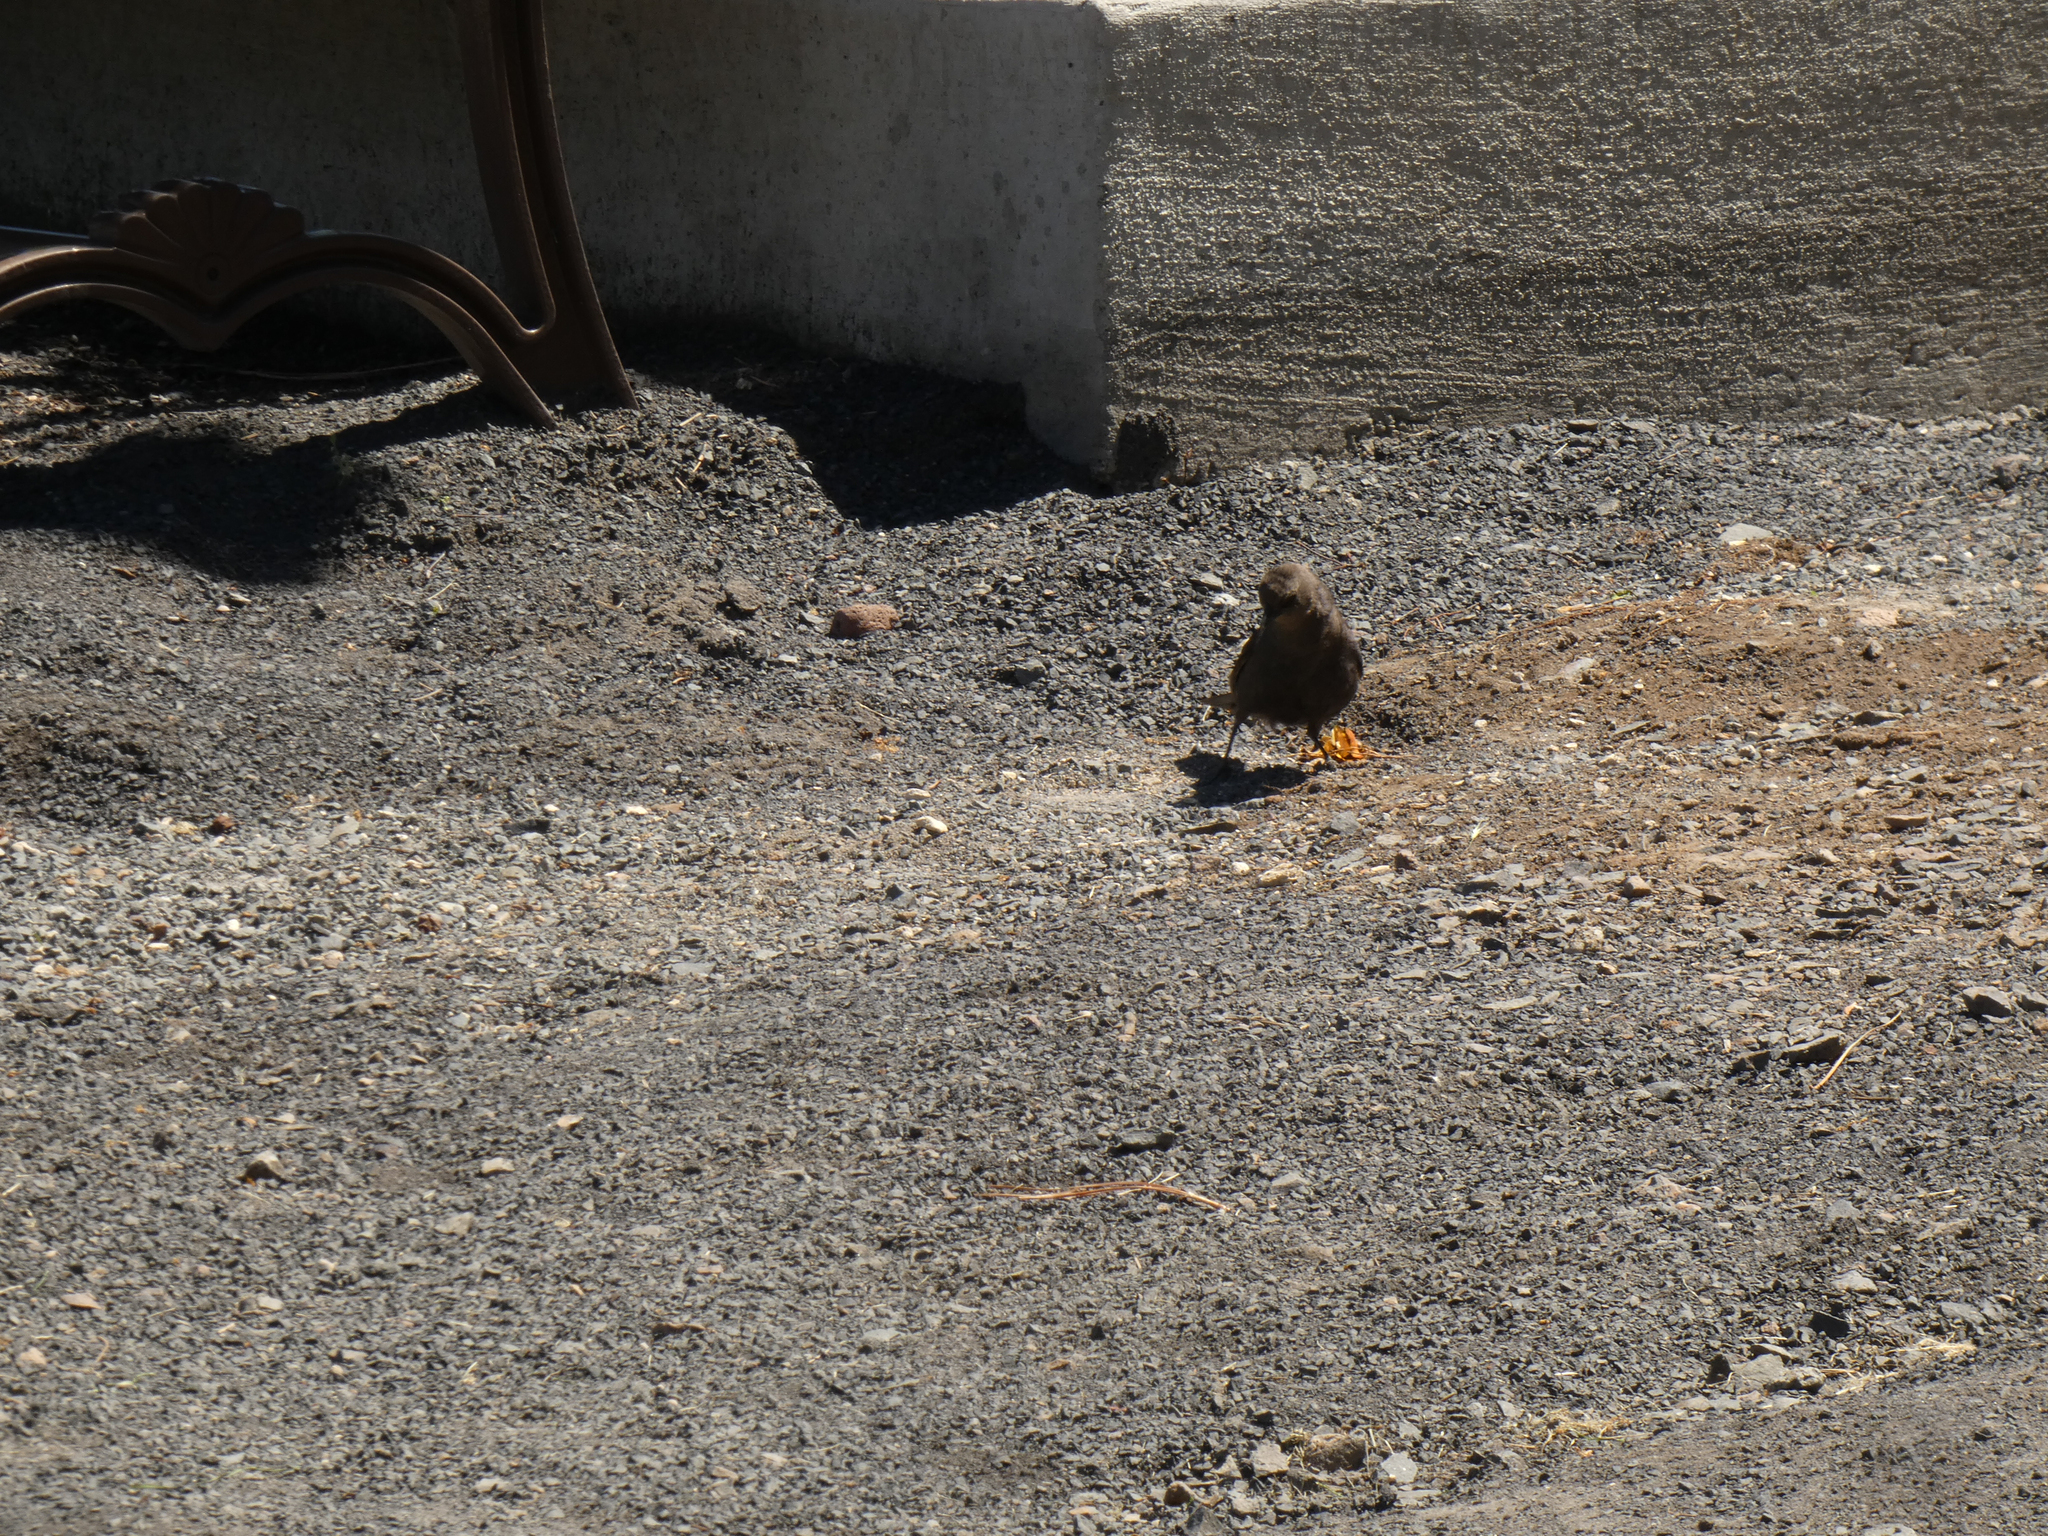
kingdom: Animalia
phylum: Chordata
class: Aves
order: Passeriformes
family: Icteridae
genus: Euphagus
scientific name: Euphagus cyanocephalus
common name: Brewer's blackbird
